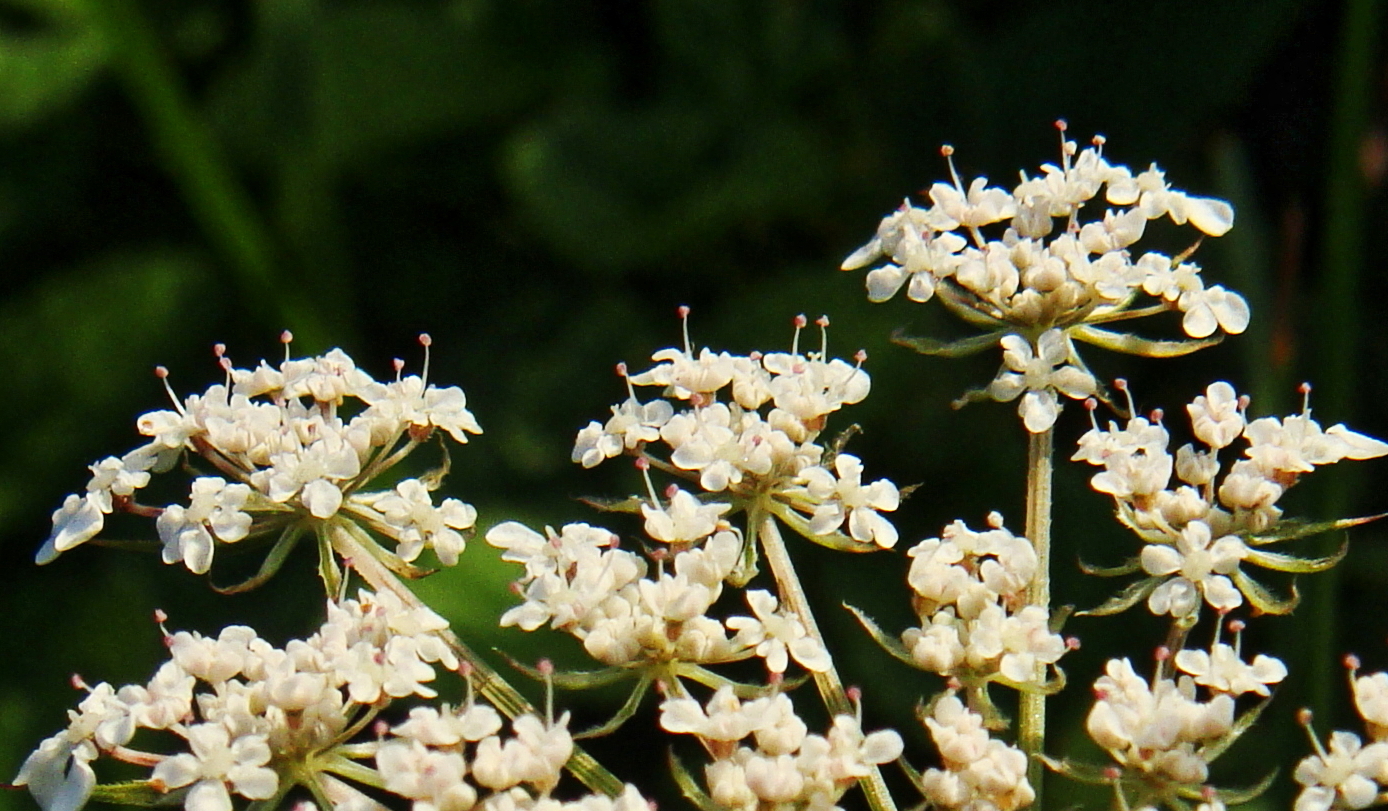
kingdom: Plantae
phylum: Tracheophyta
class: Magnoliopsida
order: Apiales
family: Apiaceae
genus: Daucus
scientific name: Daucus carota
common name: Wild carrot
